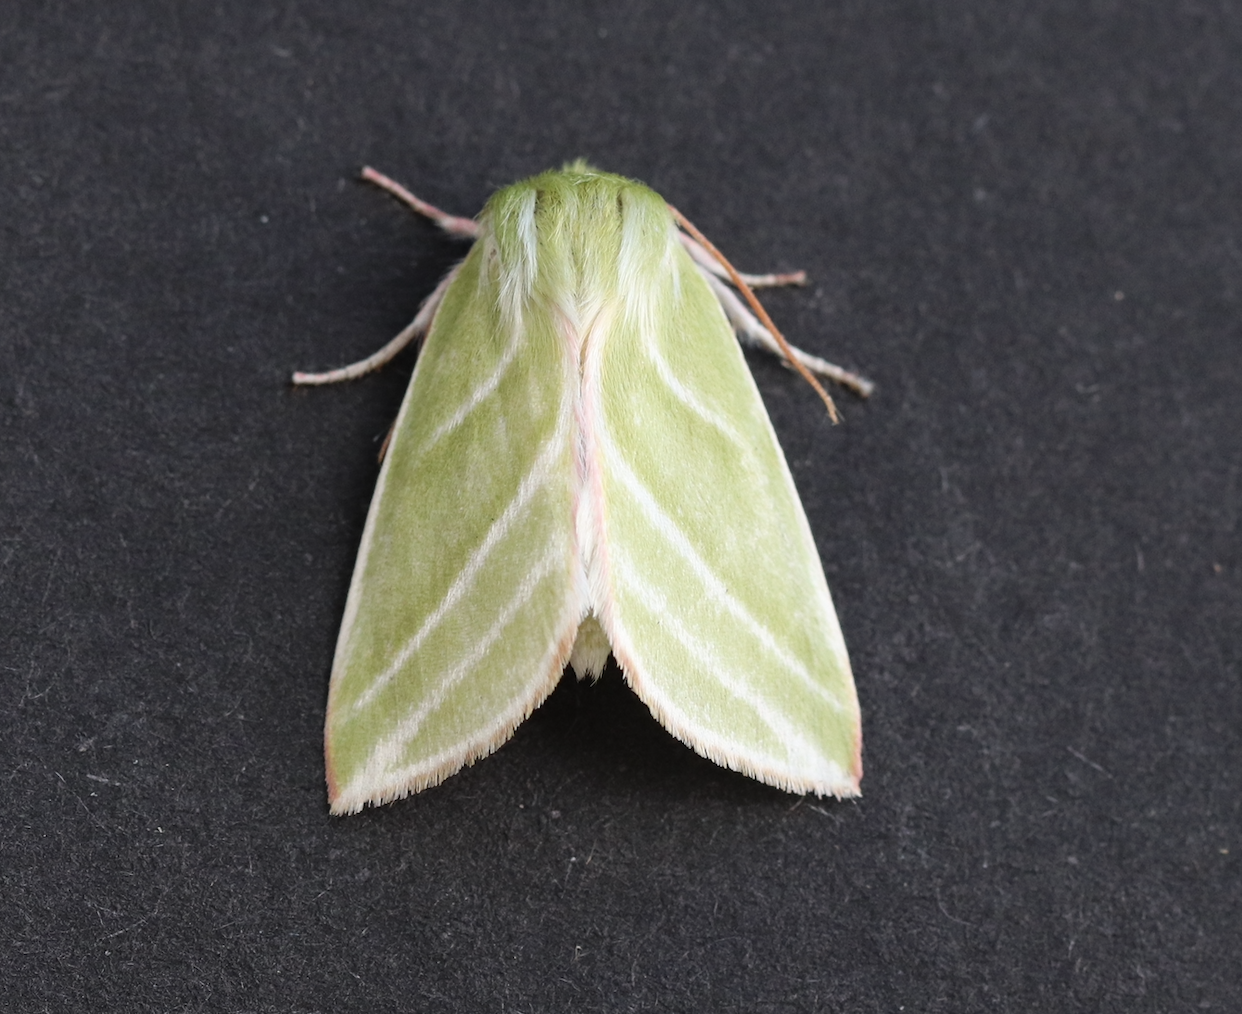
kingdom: Animalia
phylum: Arthropoda
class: Insecta
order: Lepidoptera
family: Nolidae
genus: Pseudoips
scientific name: Pseudoips prasinana
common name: Green silver-lines
